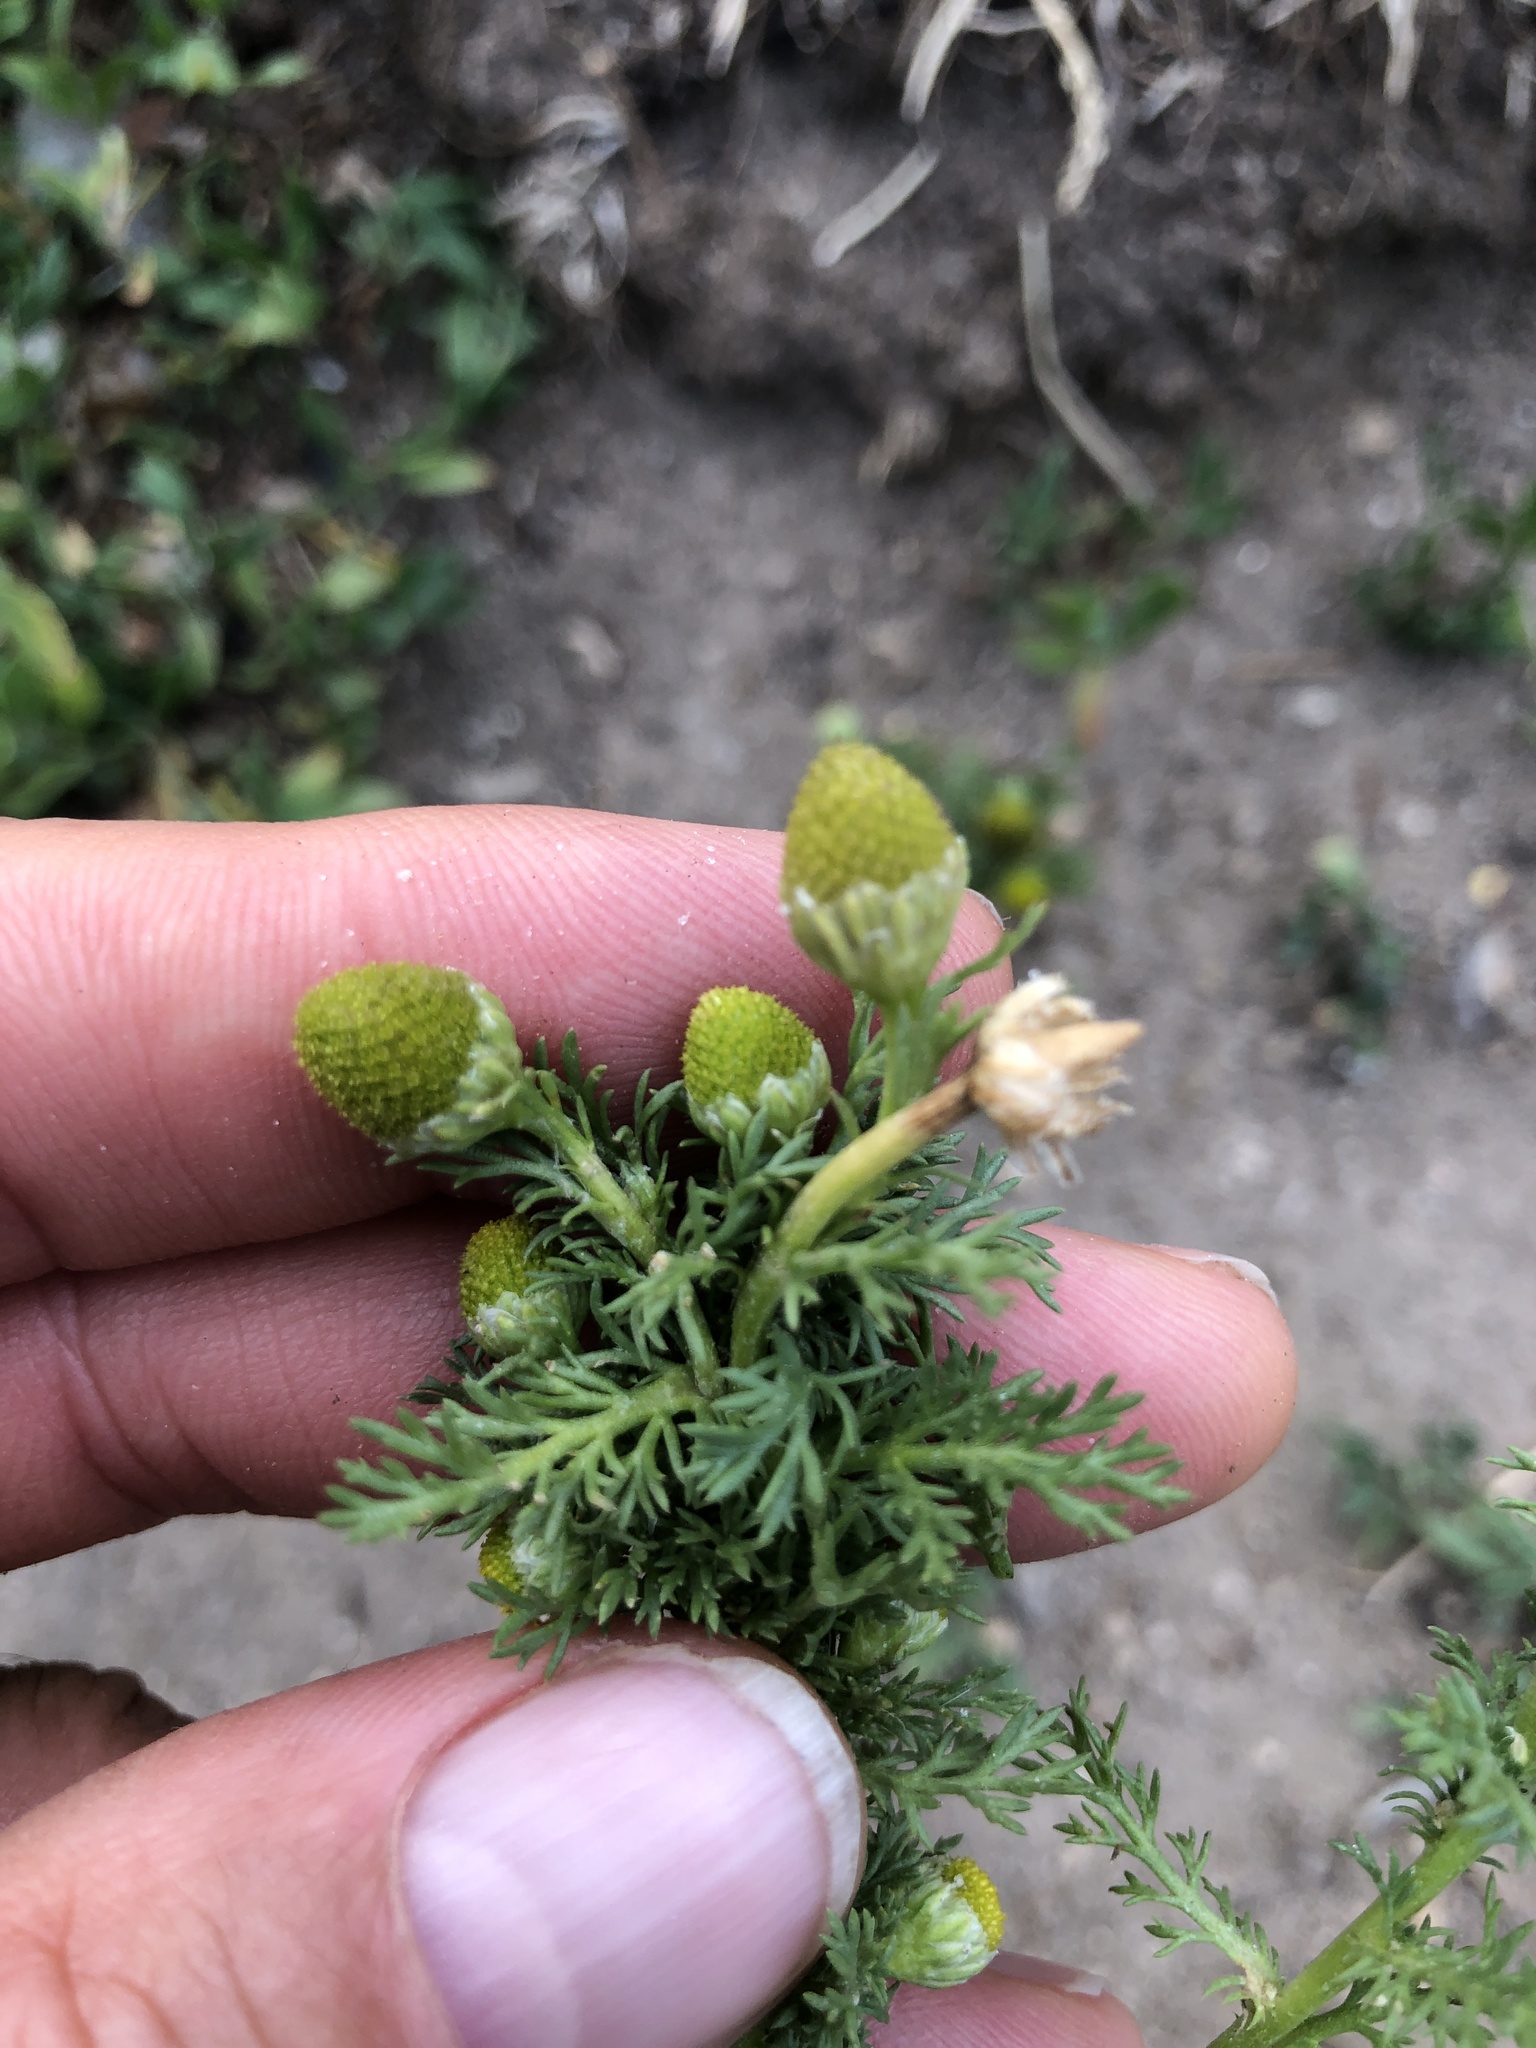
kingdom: Plantae
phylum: Tracheophyta
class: Magnoliopsida
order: Asterales
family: Asteraceae
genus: Matricaria
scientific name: Matricaria discoidea
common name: Disc mayweed
